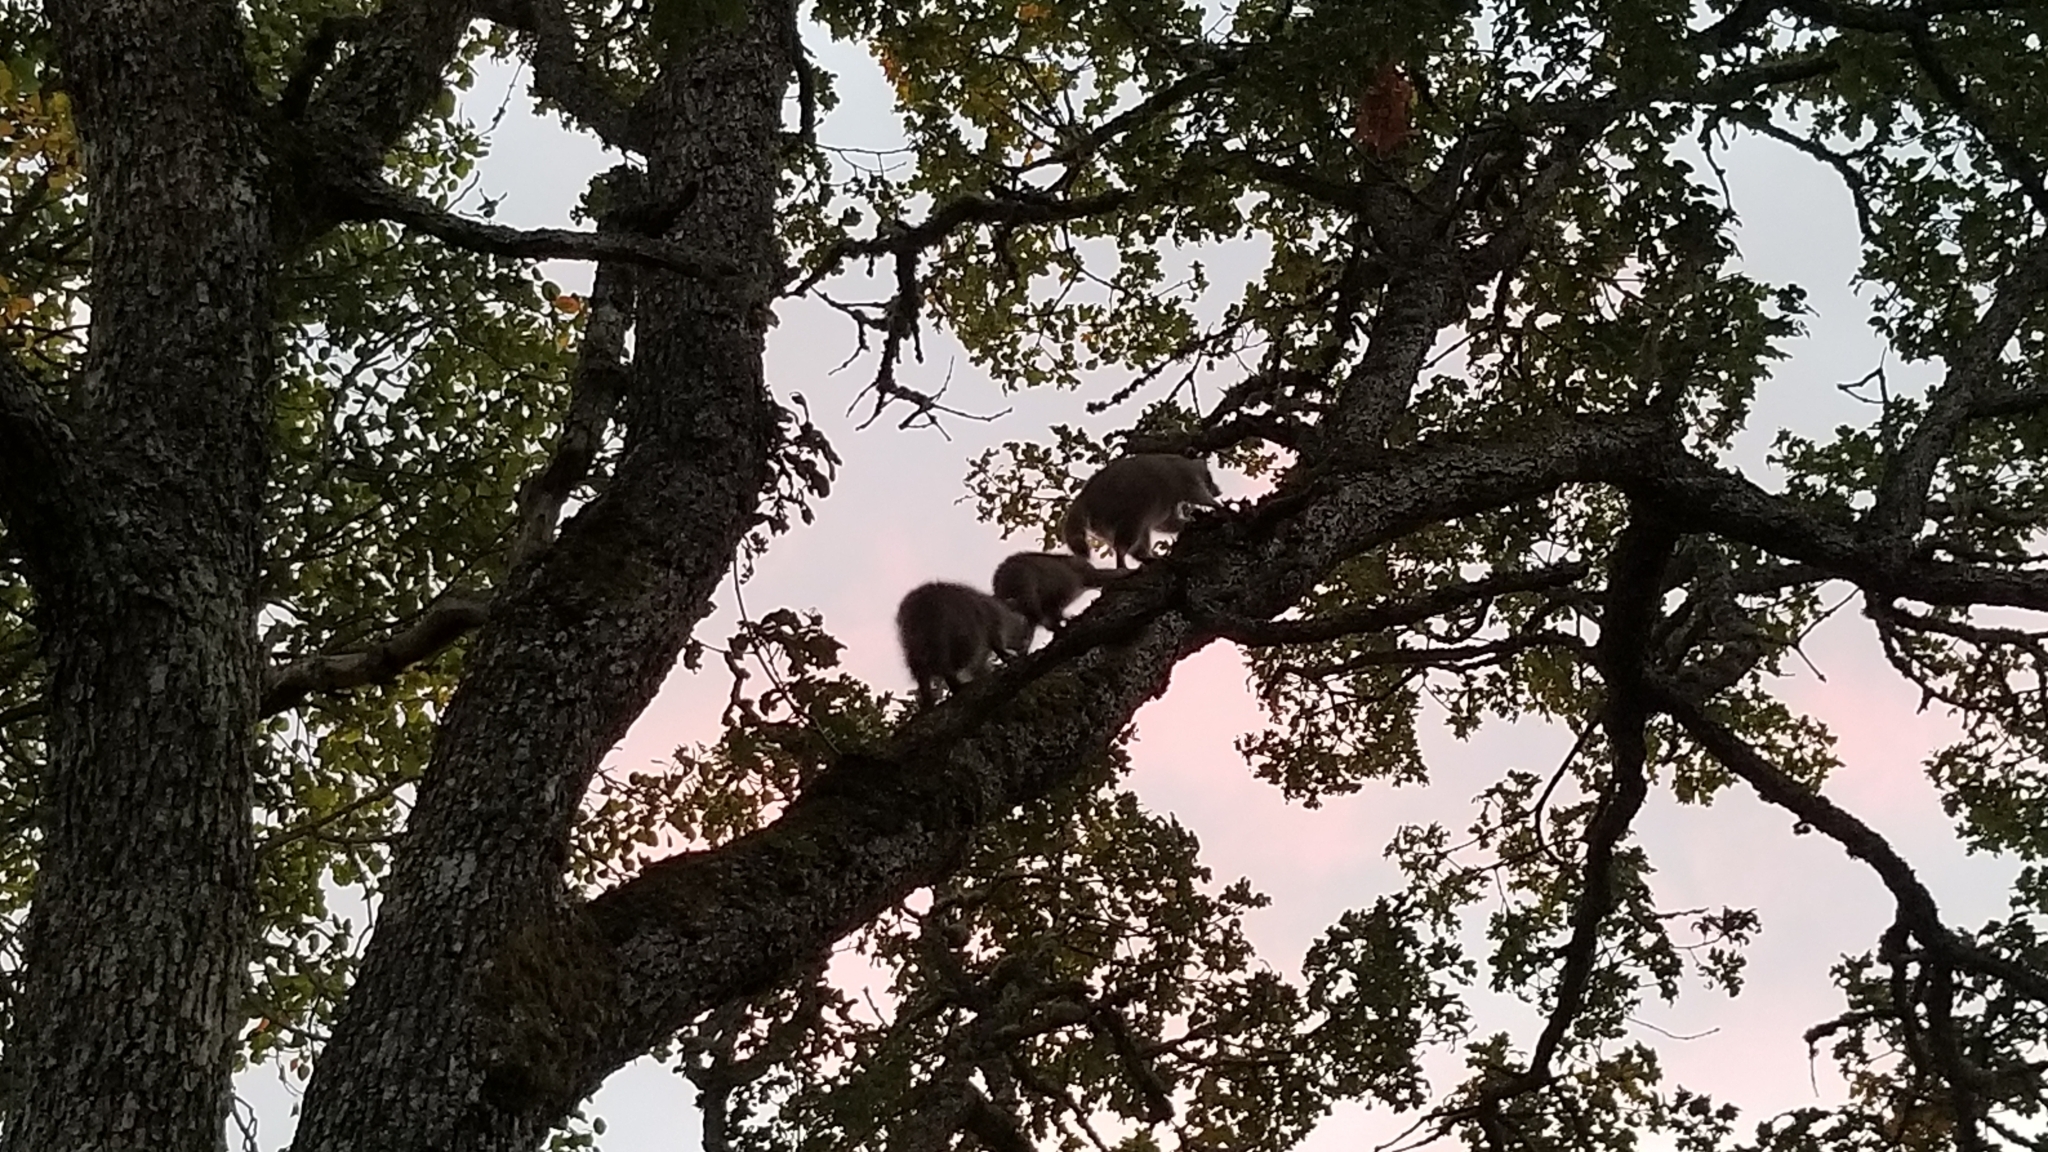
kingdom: Animalia
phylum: Chordata
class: Mammalia
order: Carnivora
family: Procyonidae
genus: Procyon
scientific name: Procyon lotor
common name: Raccoon
